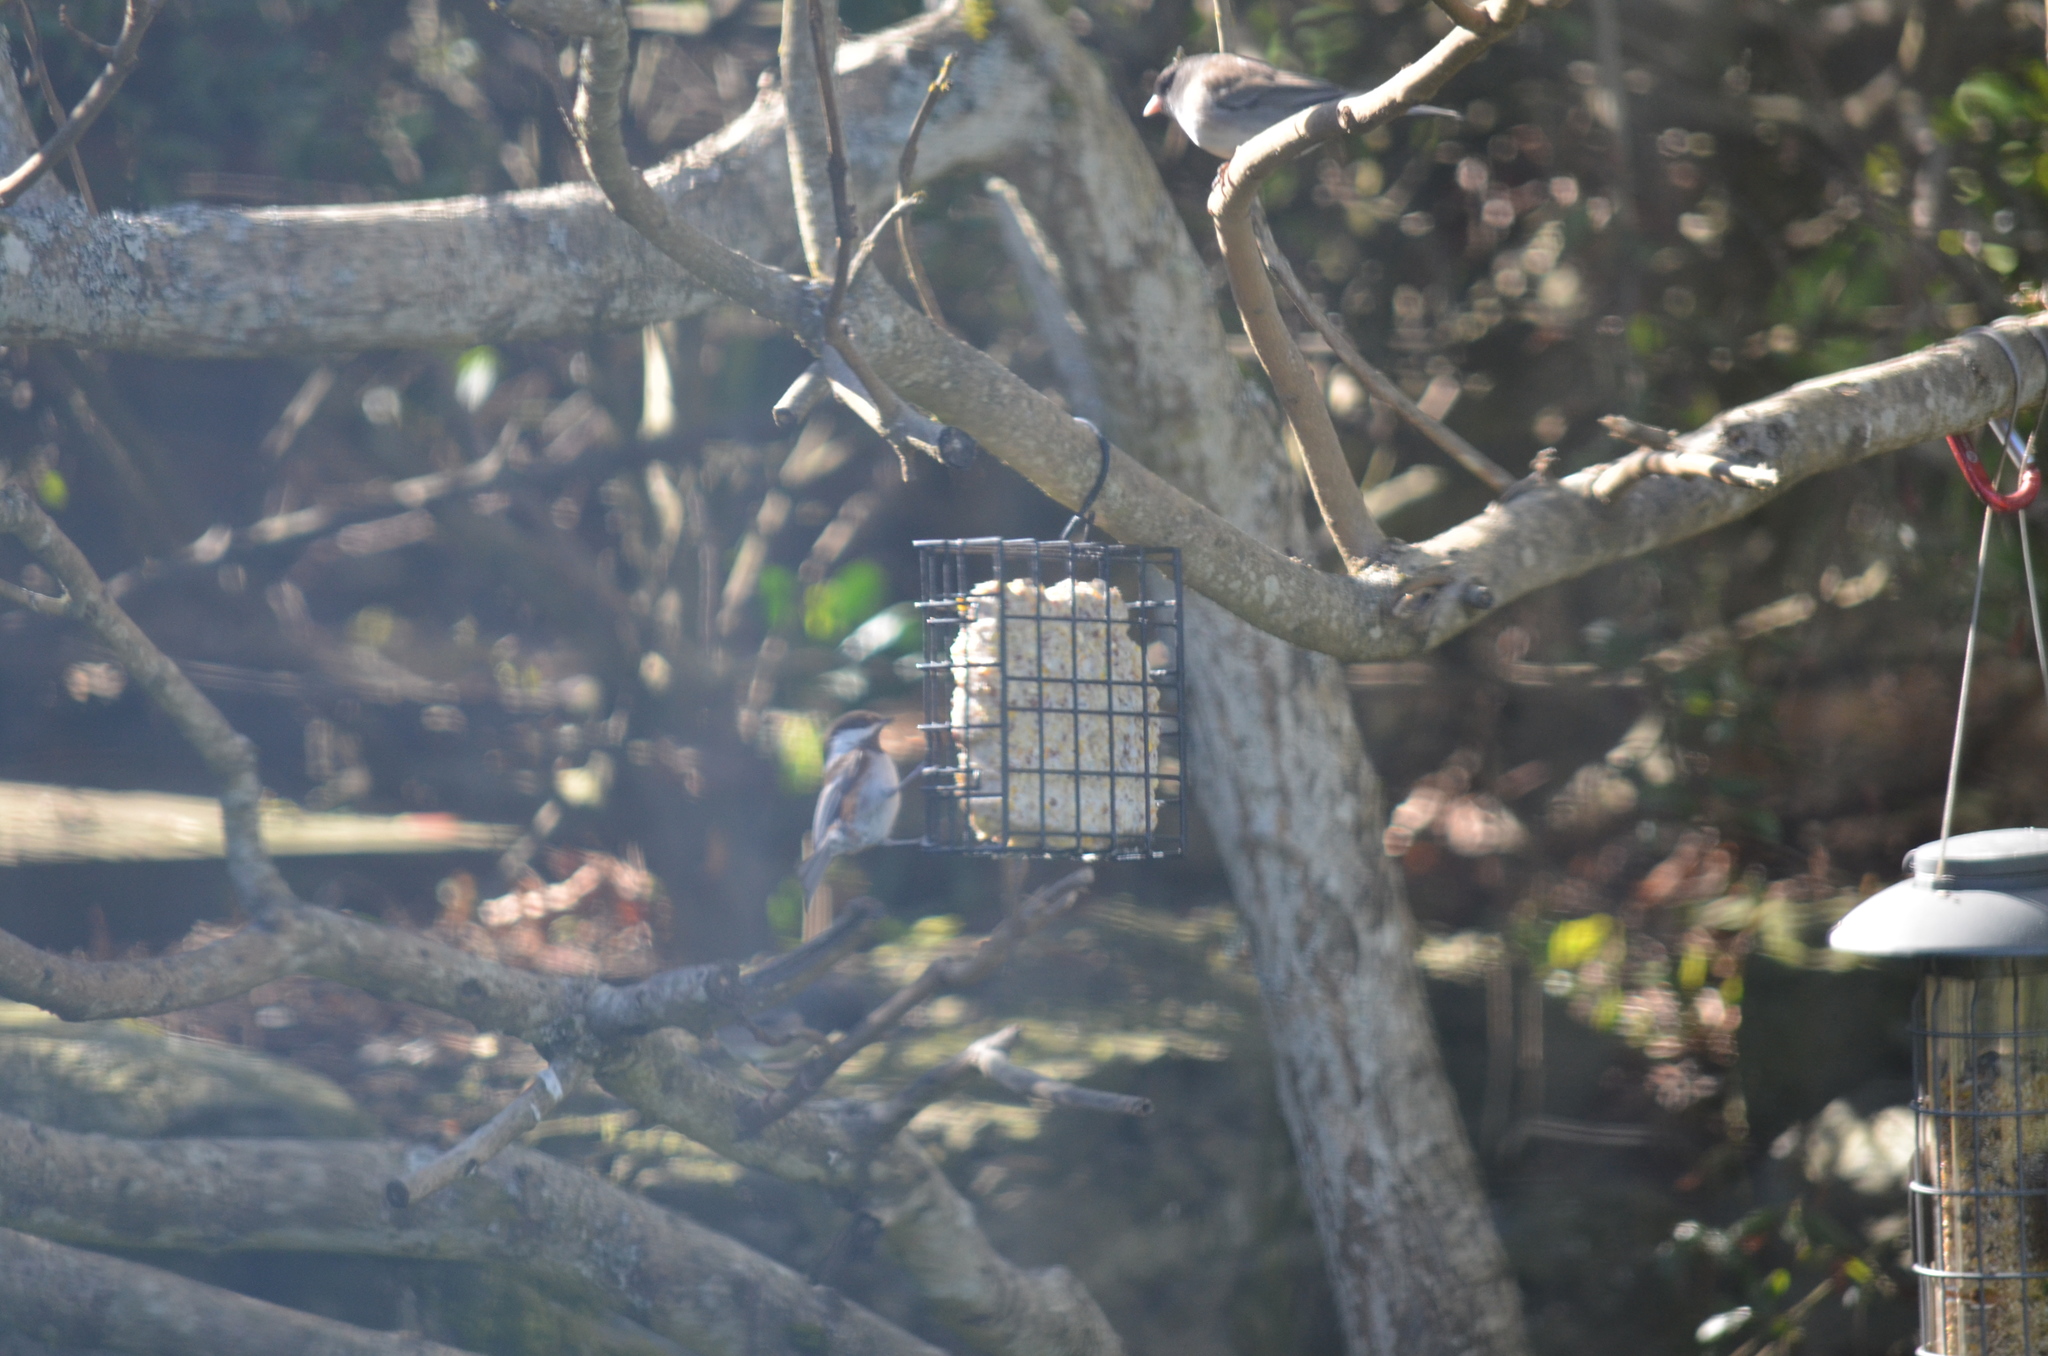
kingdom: Animalia
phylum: Chordata
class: Aves
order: Passeriformes
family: Paridae
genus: Poecile
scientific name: Poecile rufescens
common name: Chestnut-backed chickadee
